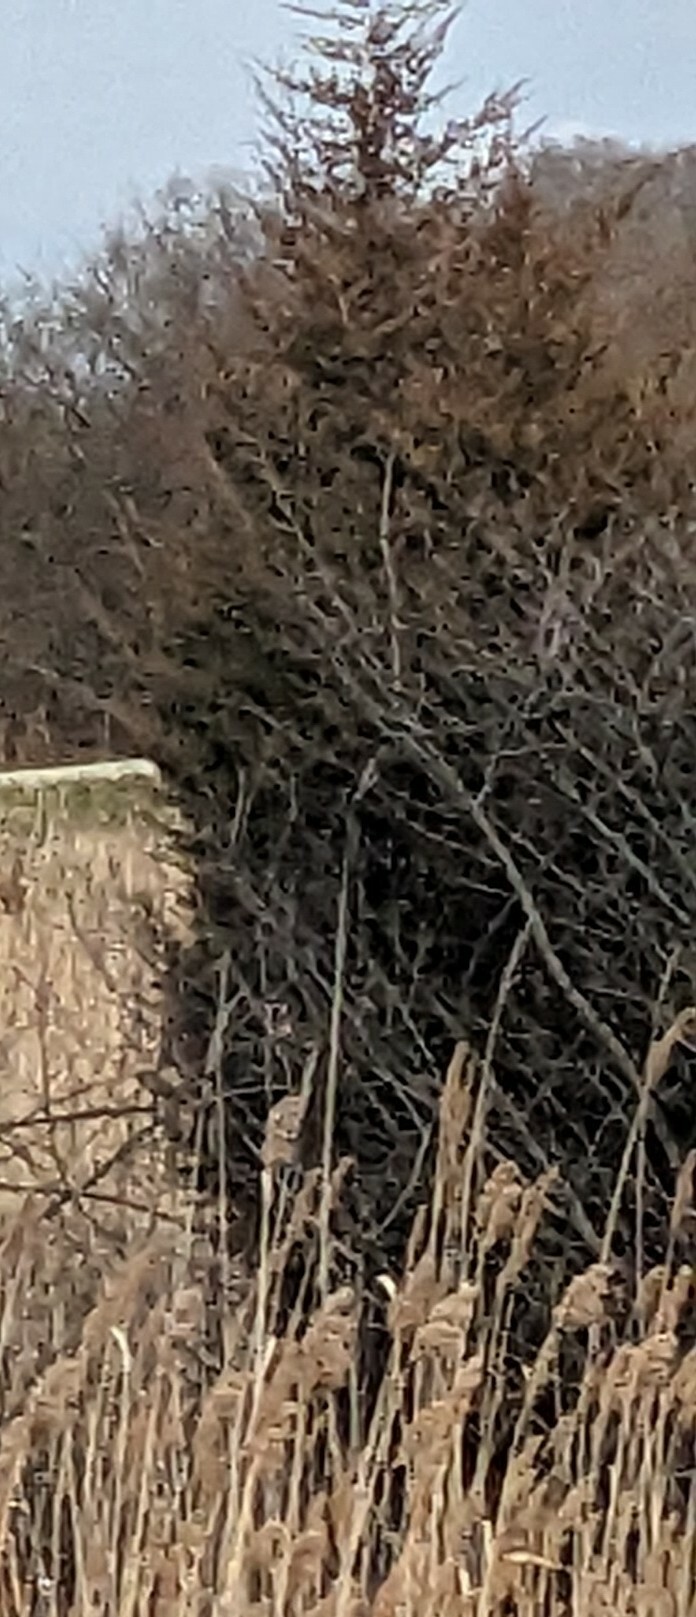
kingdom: Plantae
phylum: Tracheophyta
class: Pinopsida
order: Pinales
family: Cupressaceae
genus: Juniperus
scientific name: Juniperus virginiana
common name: Red juniper
